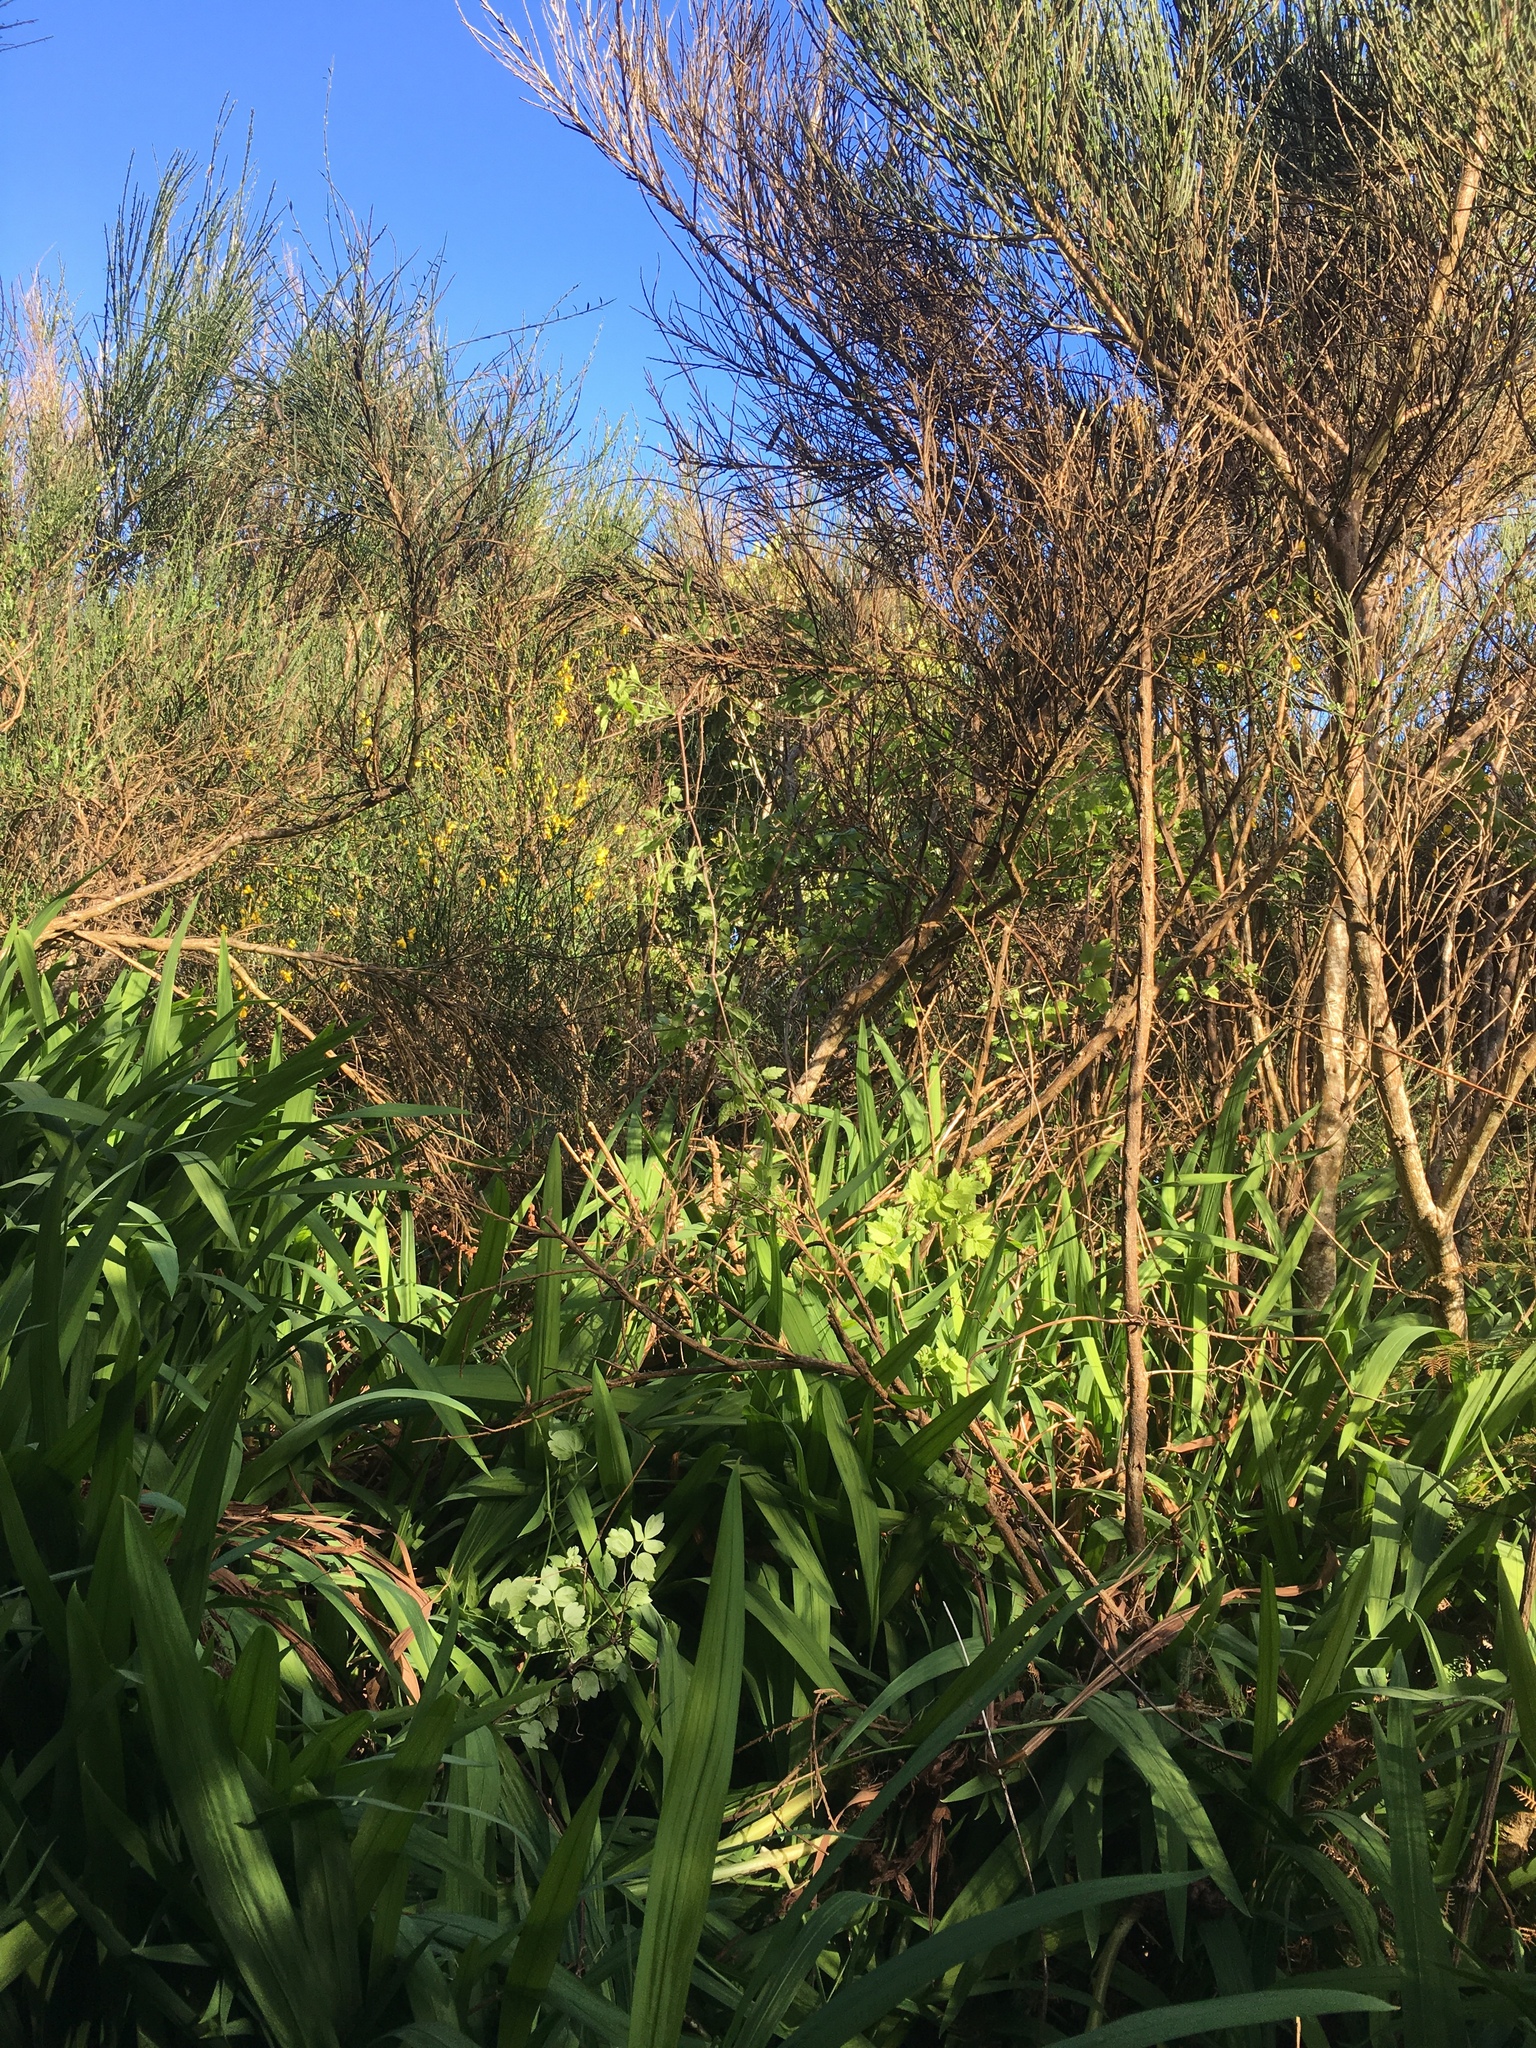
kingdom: Plantae
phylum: Tracheophyta
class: Magnoliopsida
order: Ranunculales
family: Ranunculaceae
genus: Clematis
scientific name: Clematis vitalba
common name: Evergreen clematis
